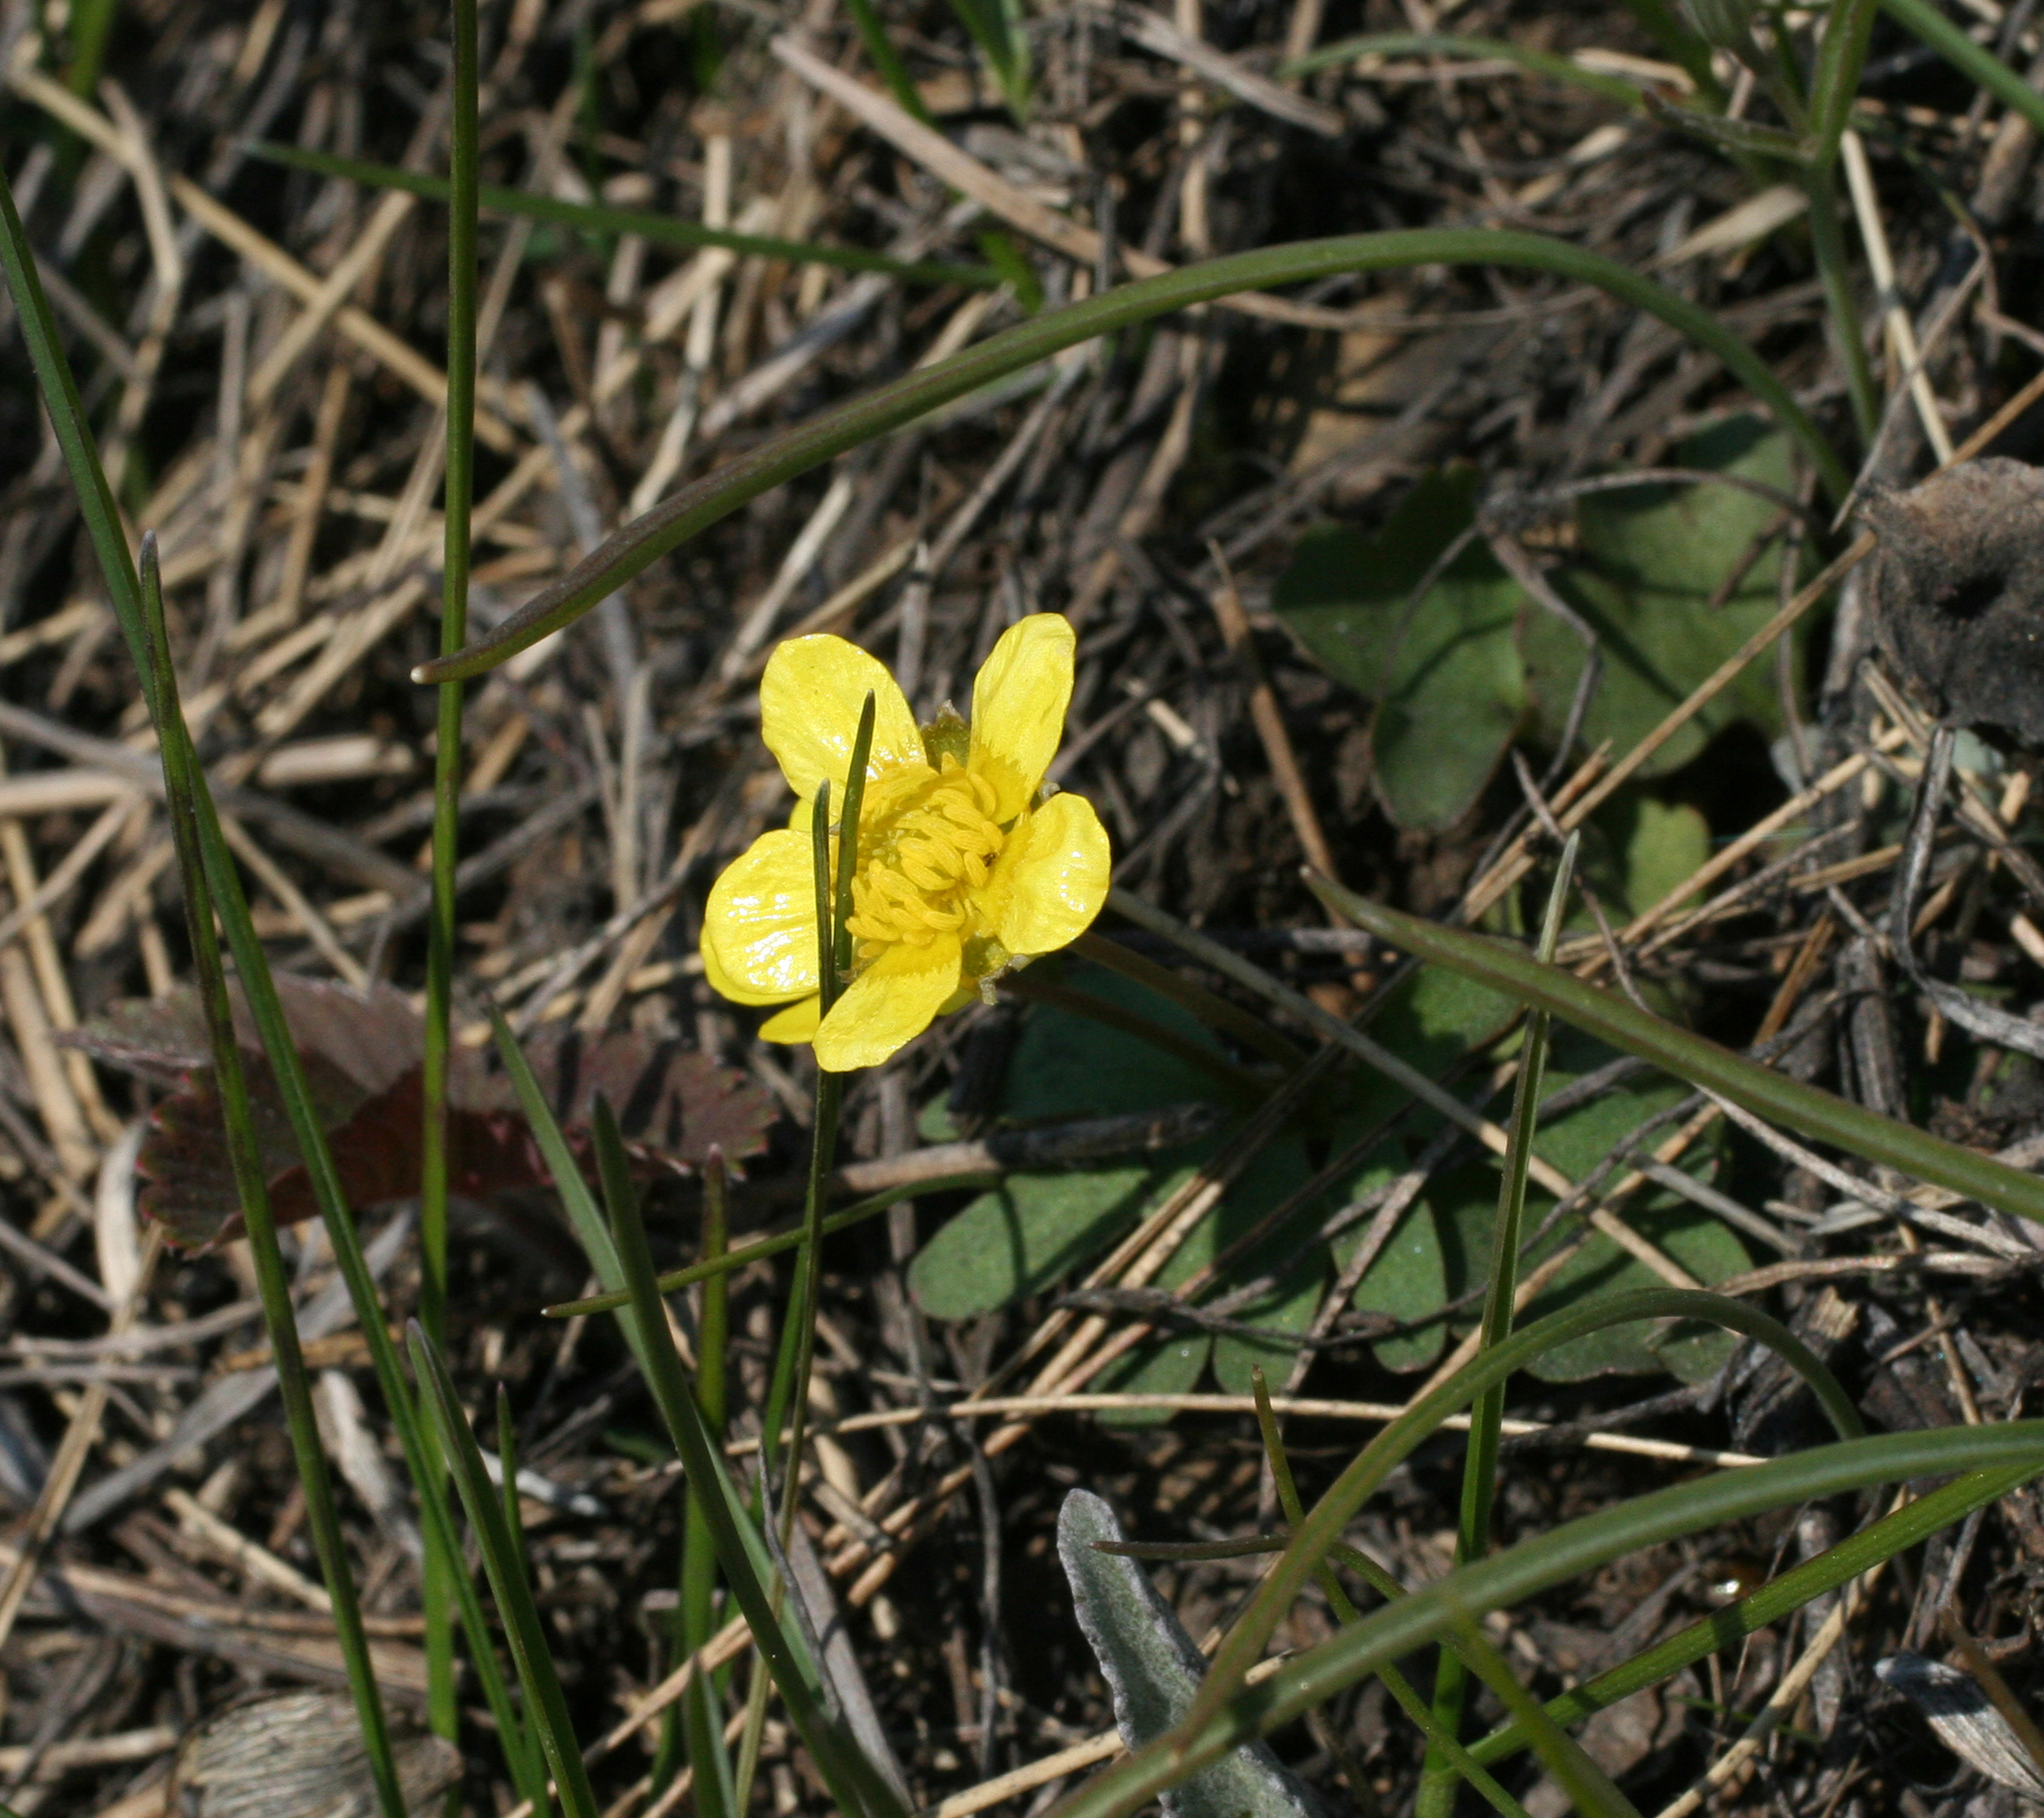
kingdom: Plantae
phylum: Tracheophyta
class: Magnoliopsida
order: Ranunculales
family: Ranunculaceae
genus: Ranunculus
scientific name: Ranunculus polyrhizos
